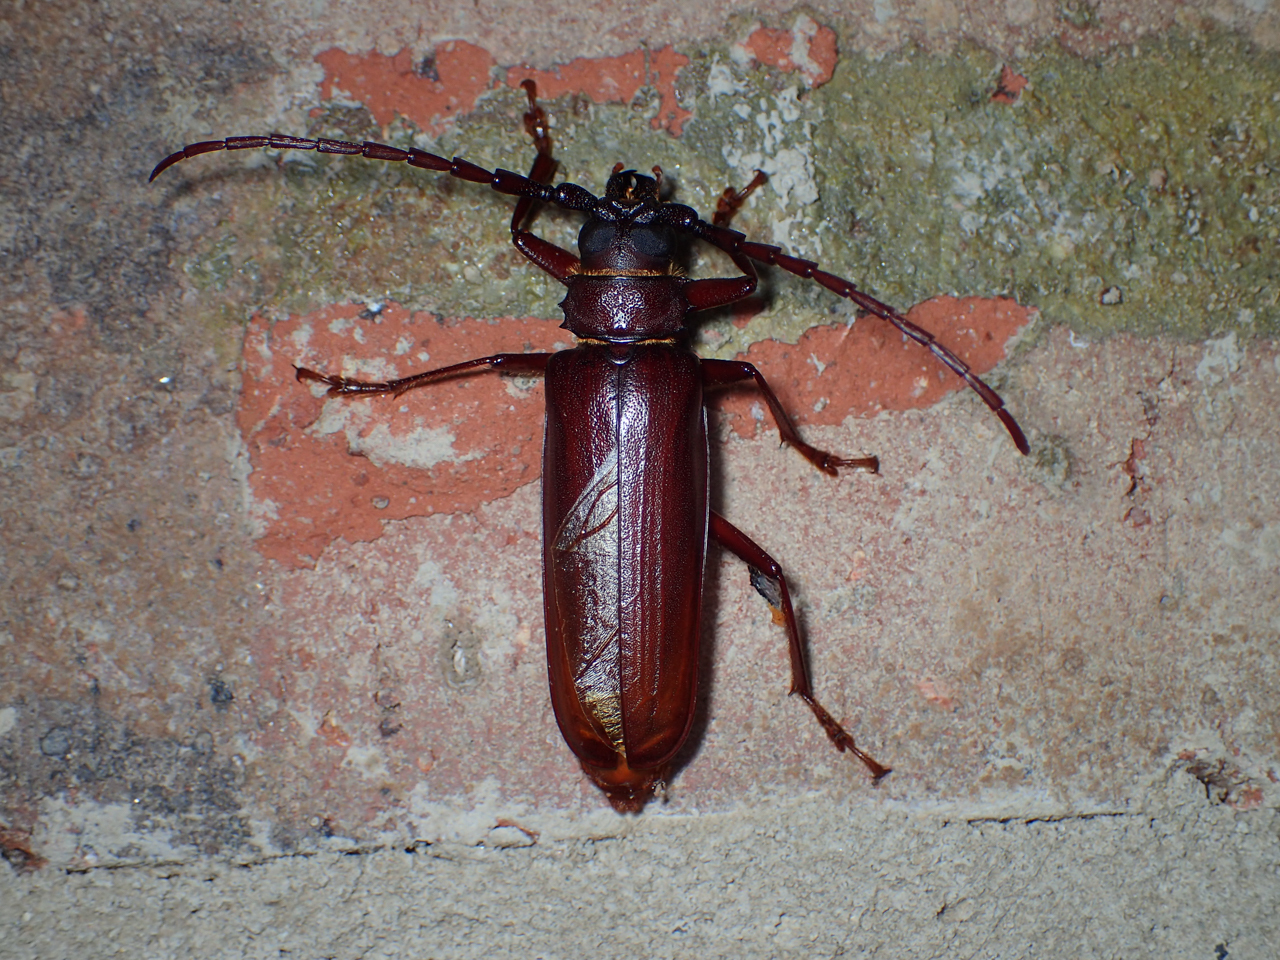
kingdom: Animalia
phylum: Arthropoda
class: Insecta
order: Coleoptera
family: Cerambycidae
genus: Orthosoma
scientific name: Orthosoma brunneum
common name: Brown prionid beetle
